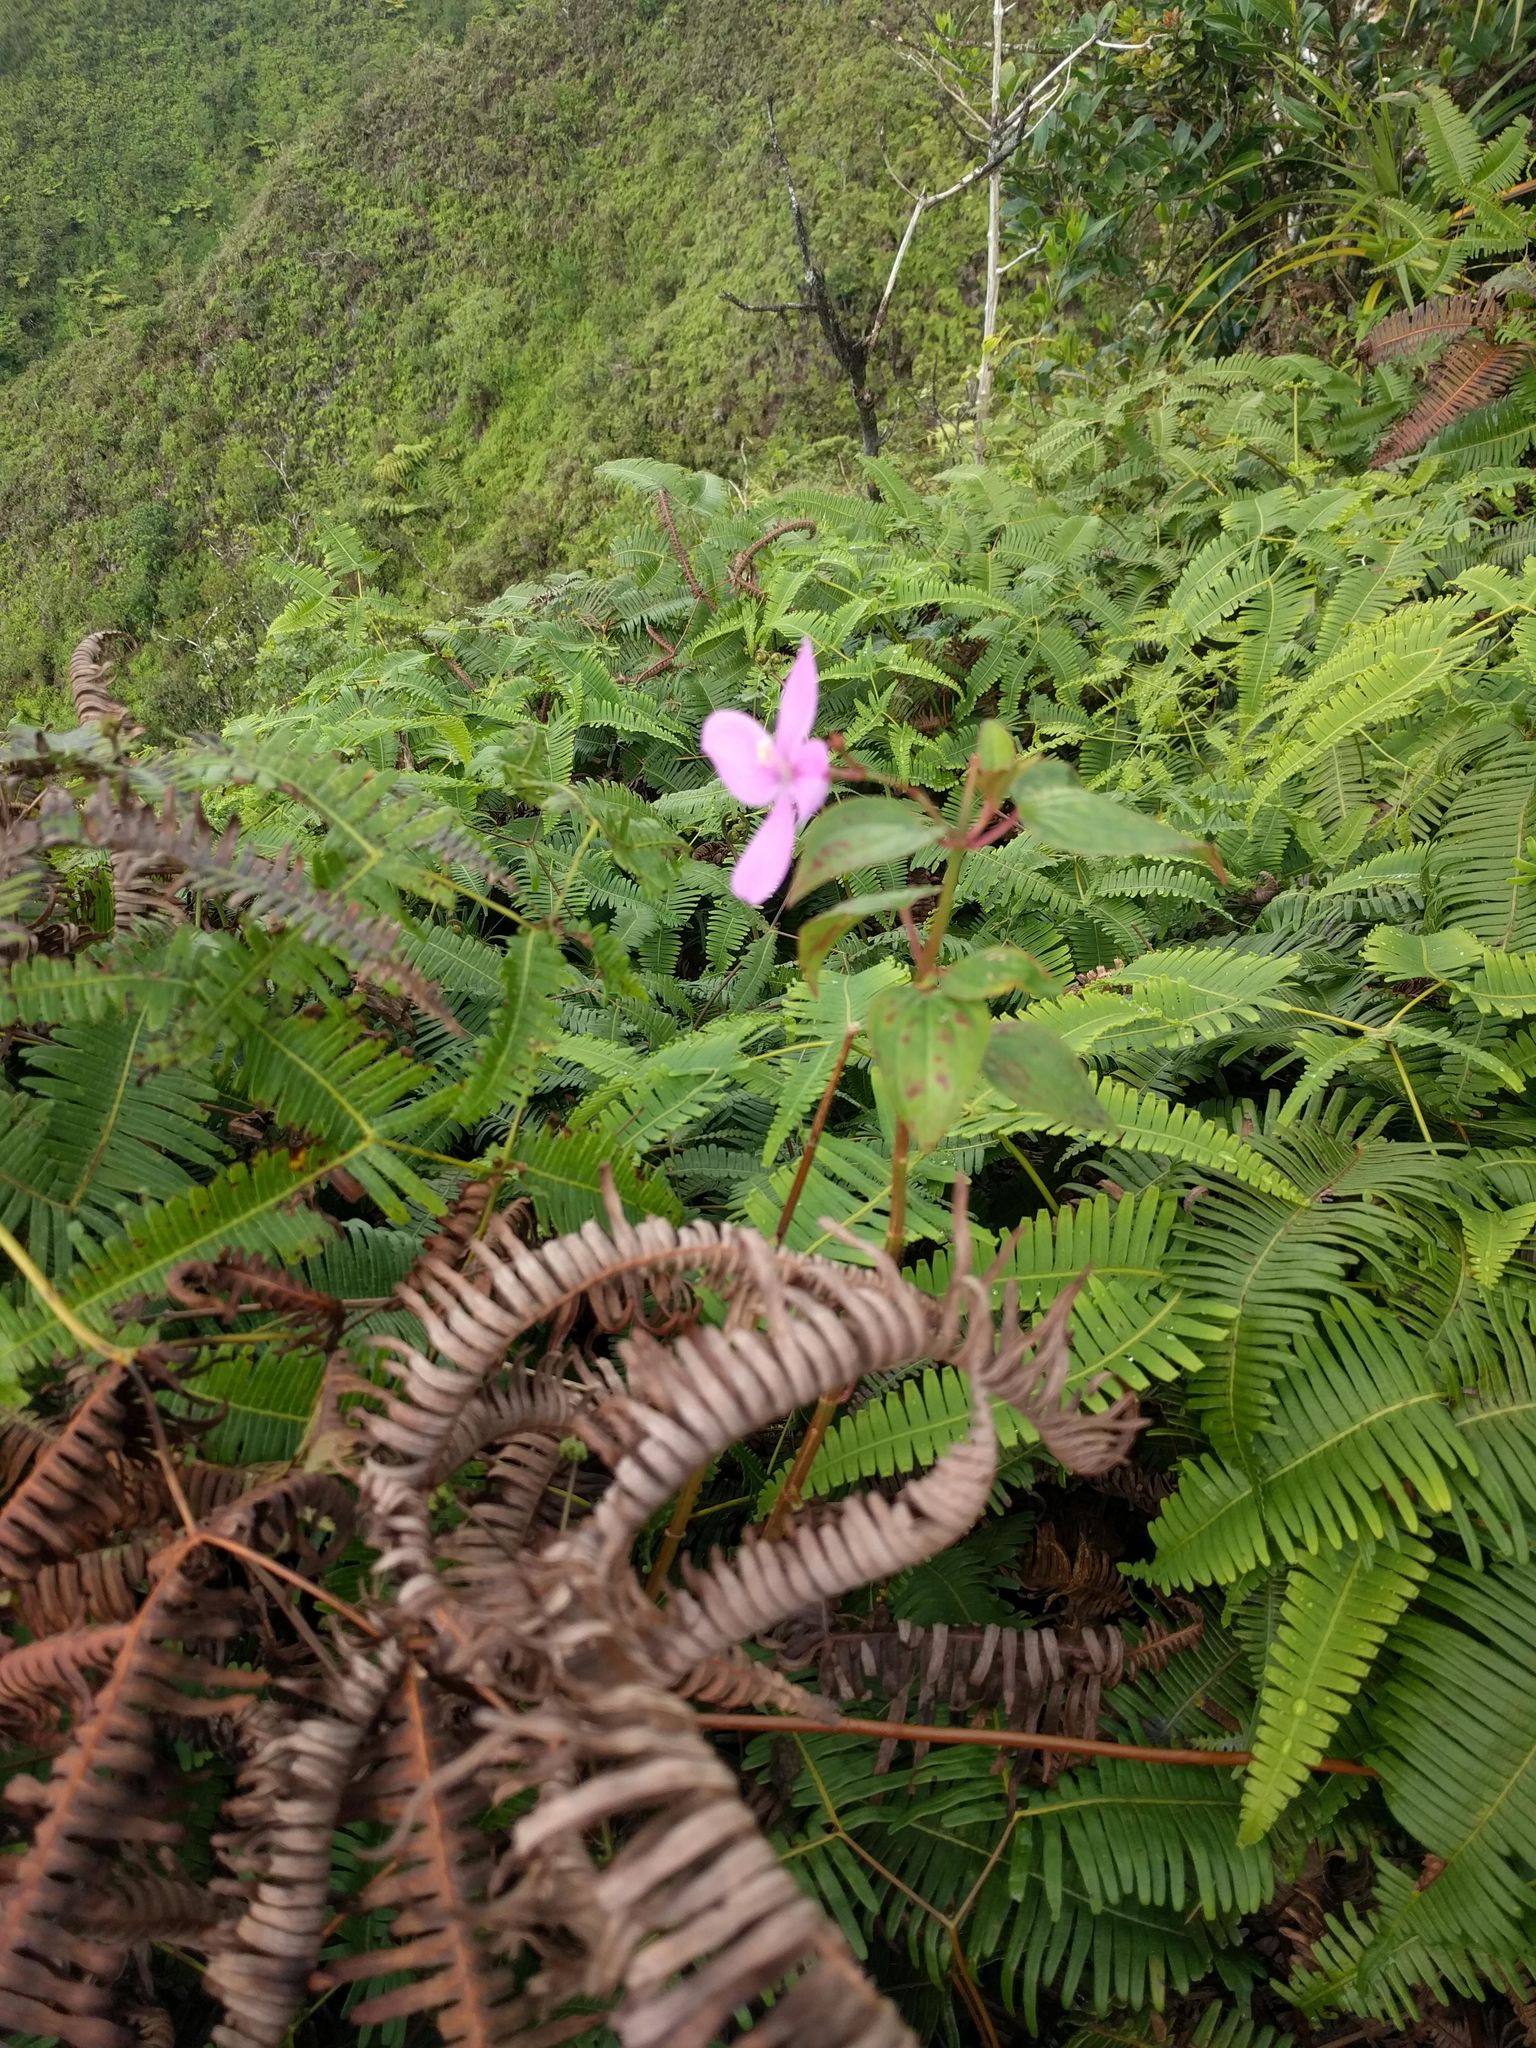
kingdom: Plantae
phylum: Tracheophyta
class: Magnoliopsida
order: Myrtales
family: Melastomataceae
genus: Arthrostemma
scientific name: Arthrostemma ciliatum
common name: Everblooming eavender
